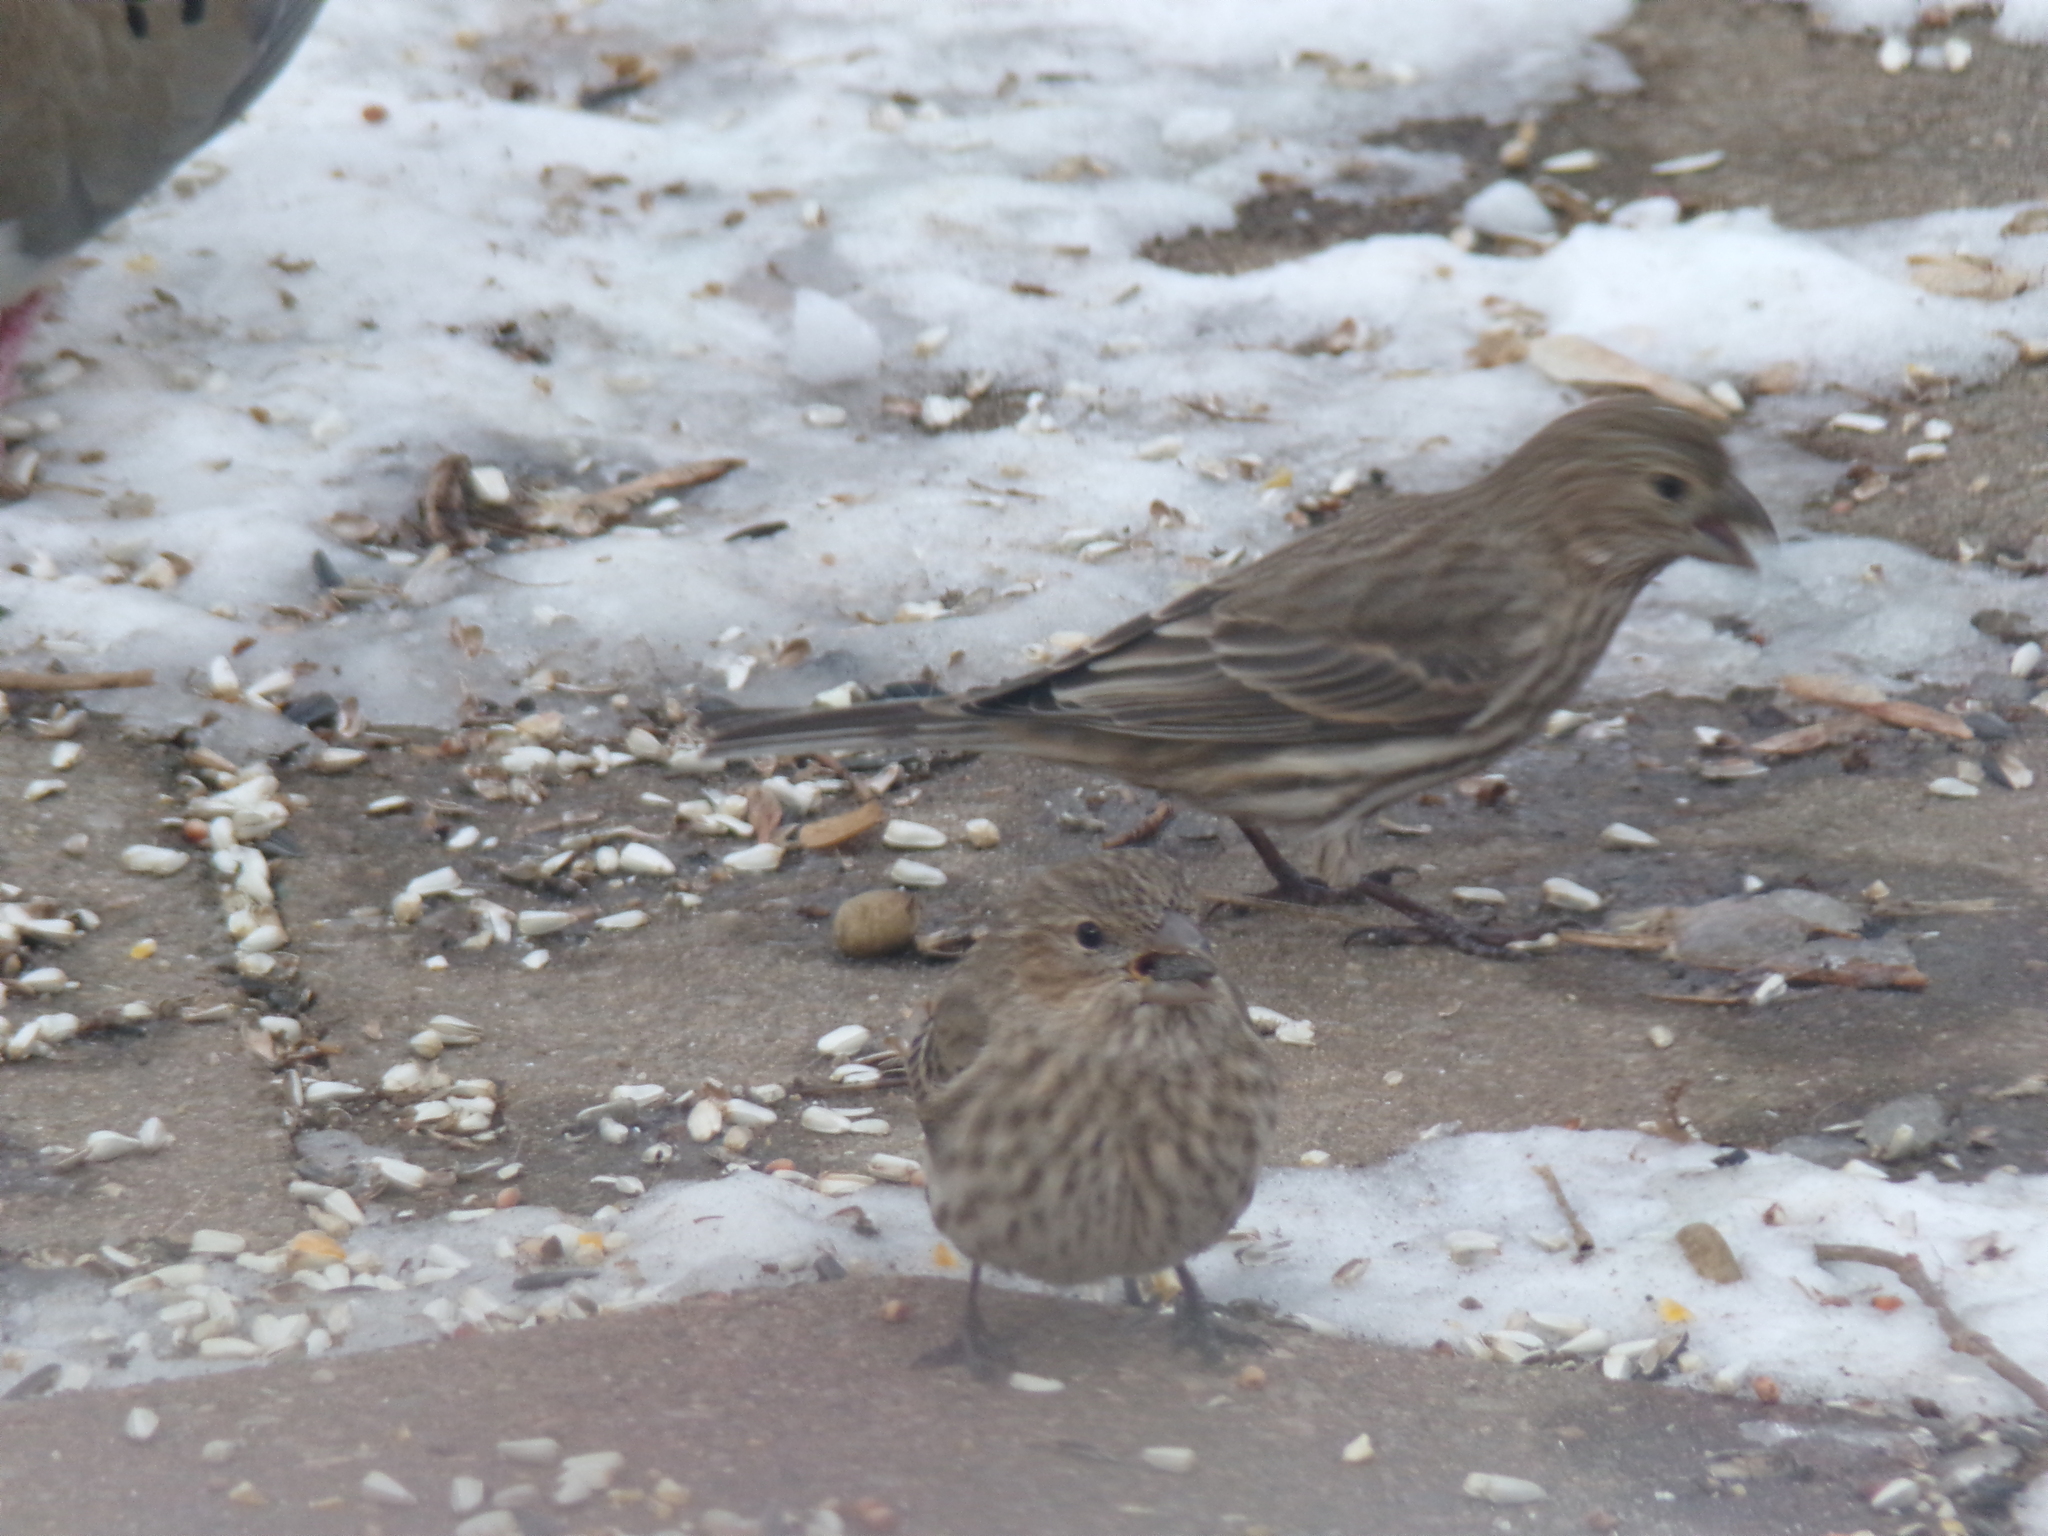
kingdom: Animalia
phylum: Chordata
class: Aves
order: Passeriformes
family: Fringillidae
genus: Haemorhous
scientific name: Haemorhous mexicanus
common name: House finch
